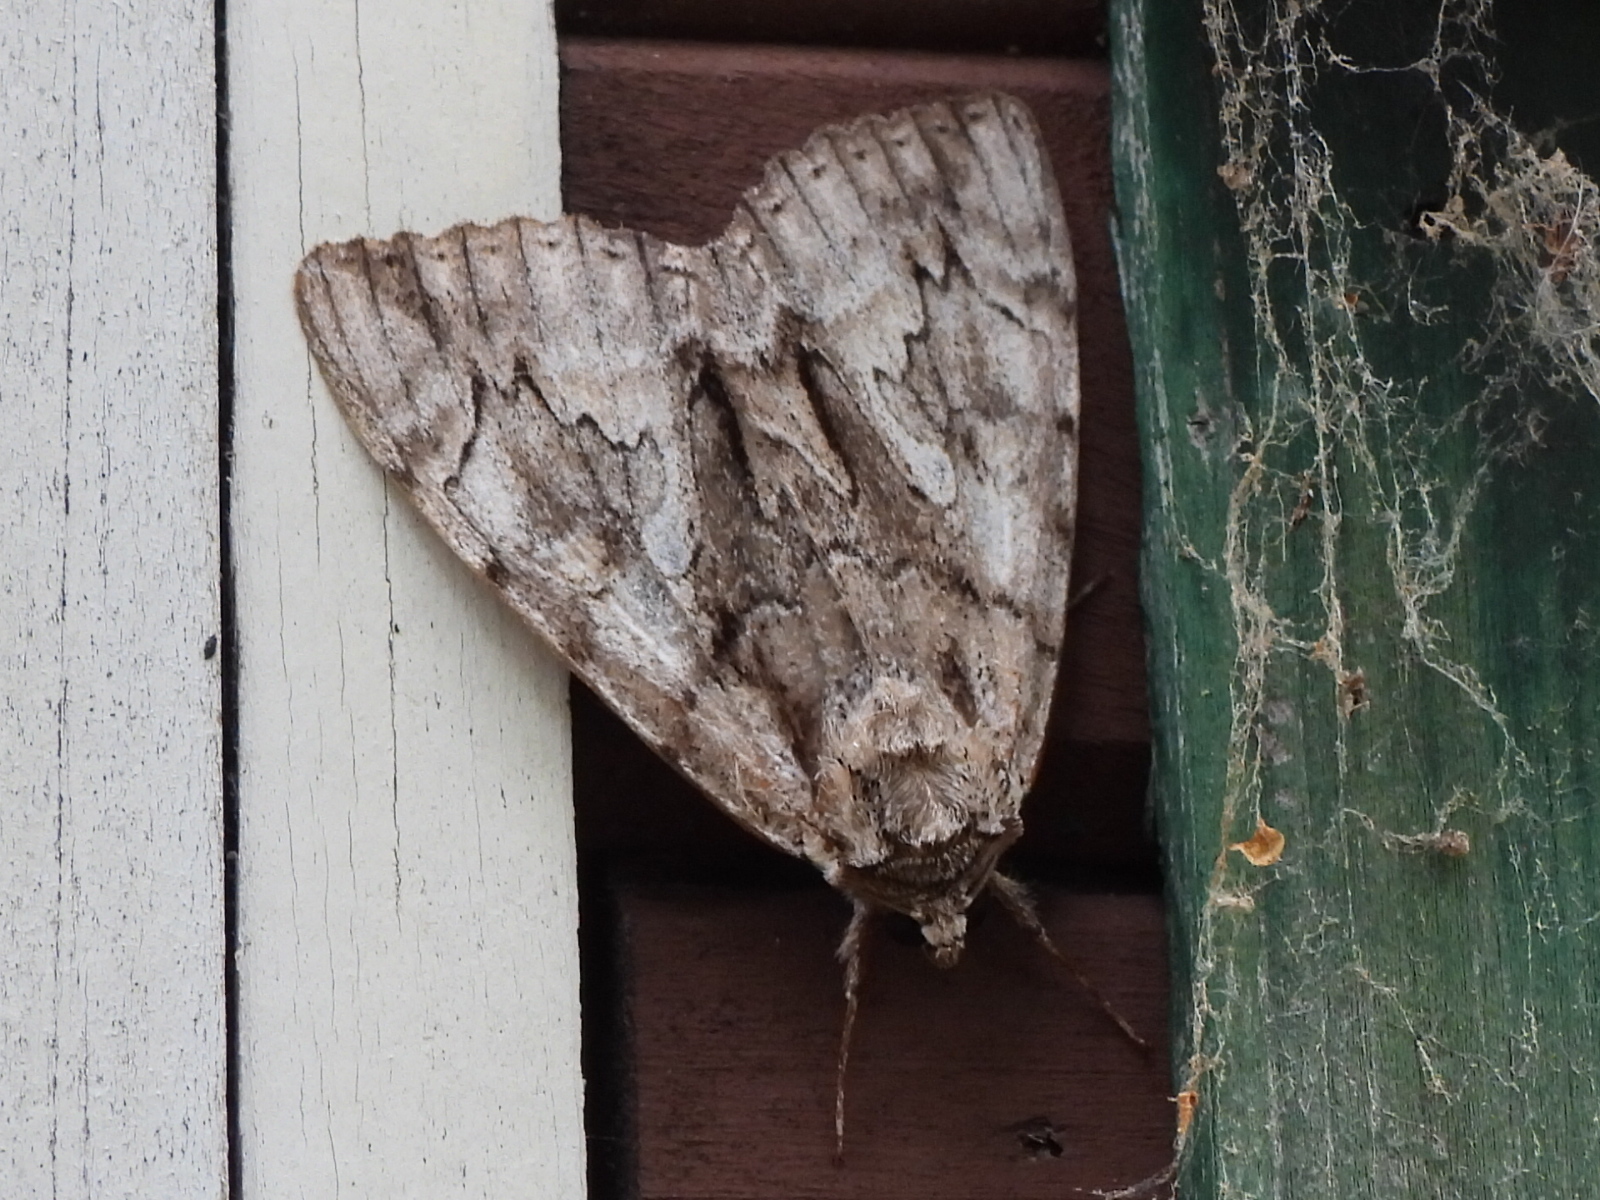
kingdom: Animalia
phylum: Arthropoda
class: Insecta
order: Lepidoptera
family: Erebidae
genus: Catocala
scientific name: Catocala retecta
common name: Yellow-gray underwing
